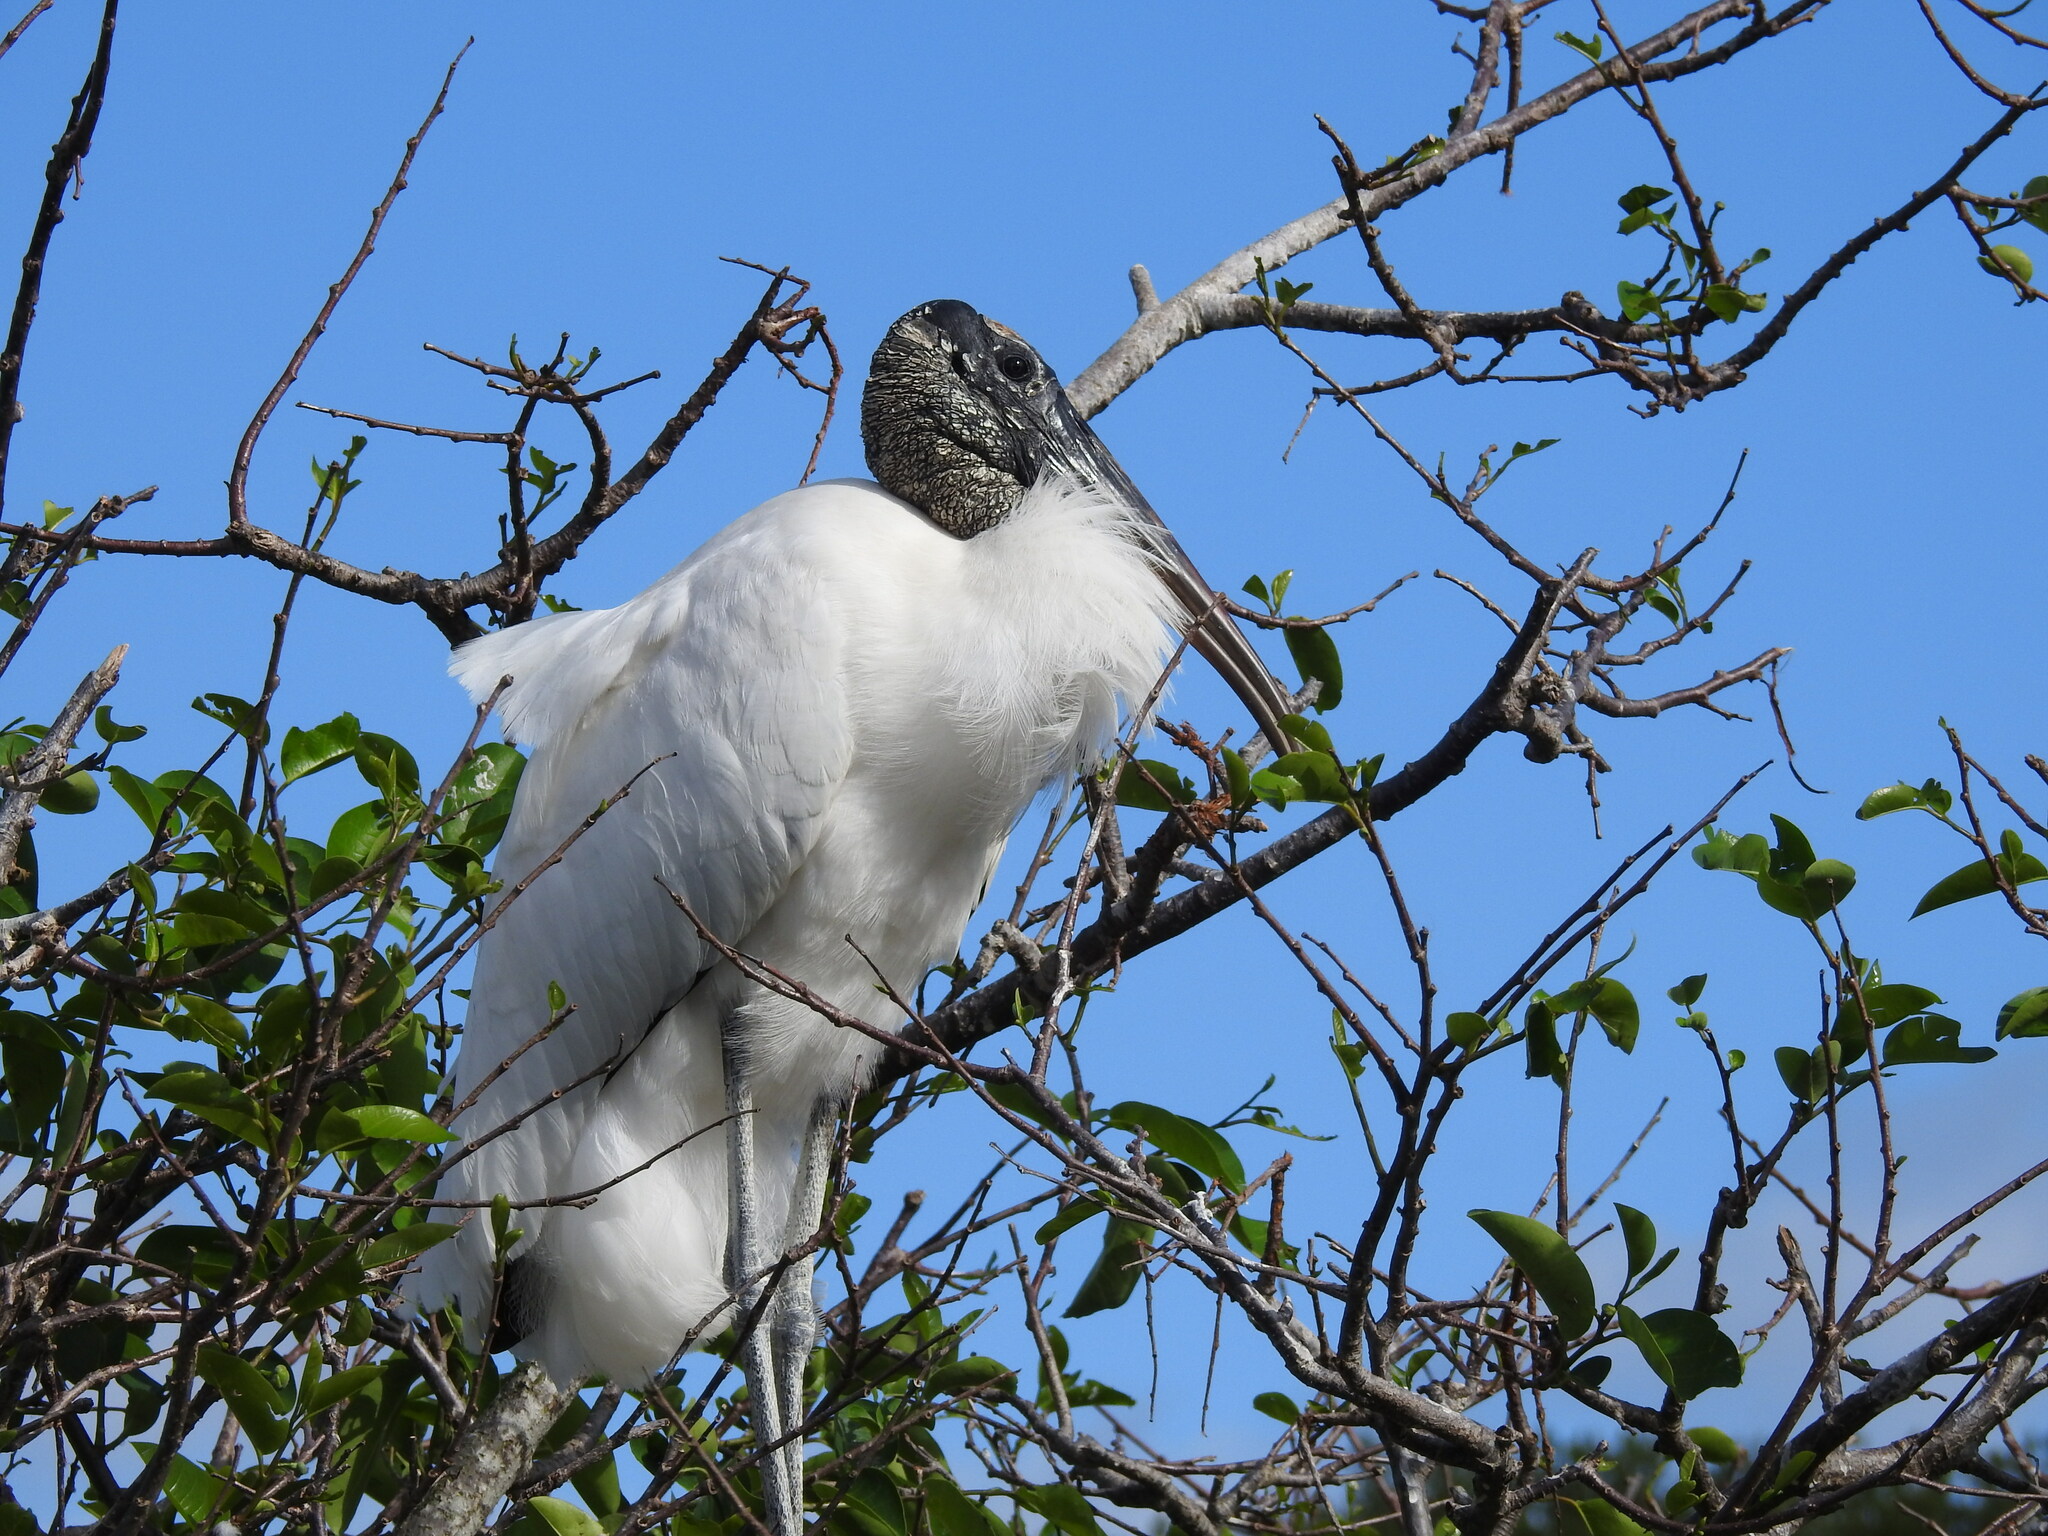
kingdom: Animalia
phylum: Chordata
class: Aves
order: Ciconiiformes
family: Ciconiidae
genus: Mycteria
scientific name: Mycteria americana
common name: Wood stork
